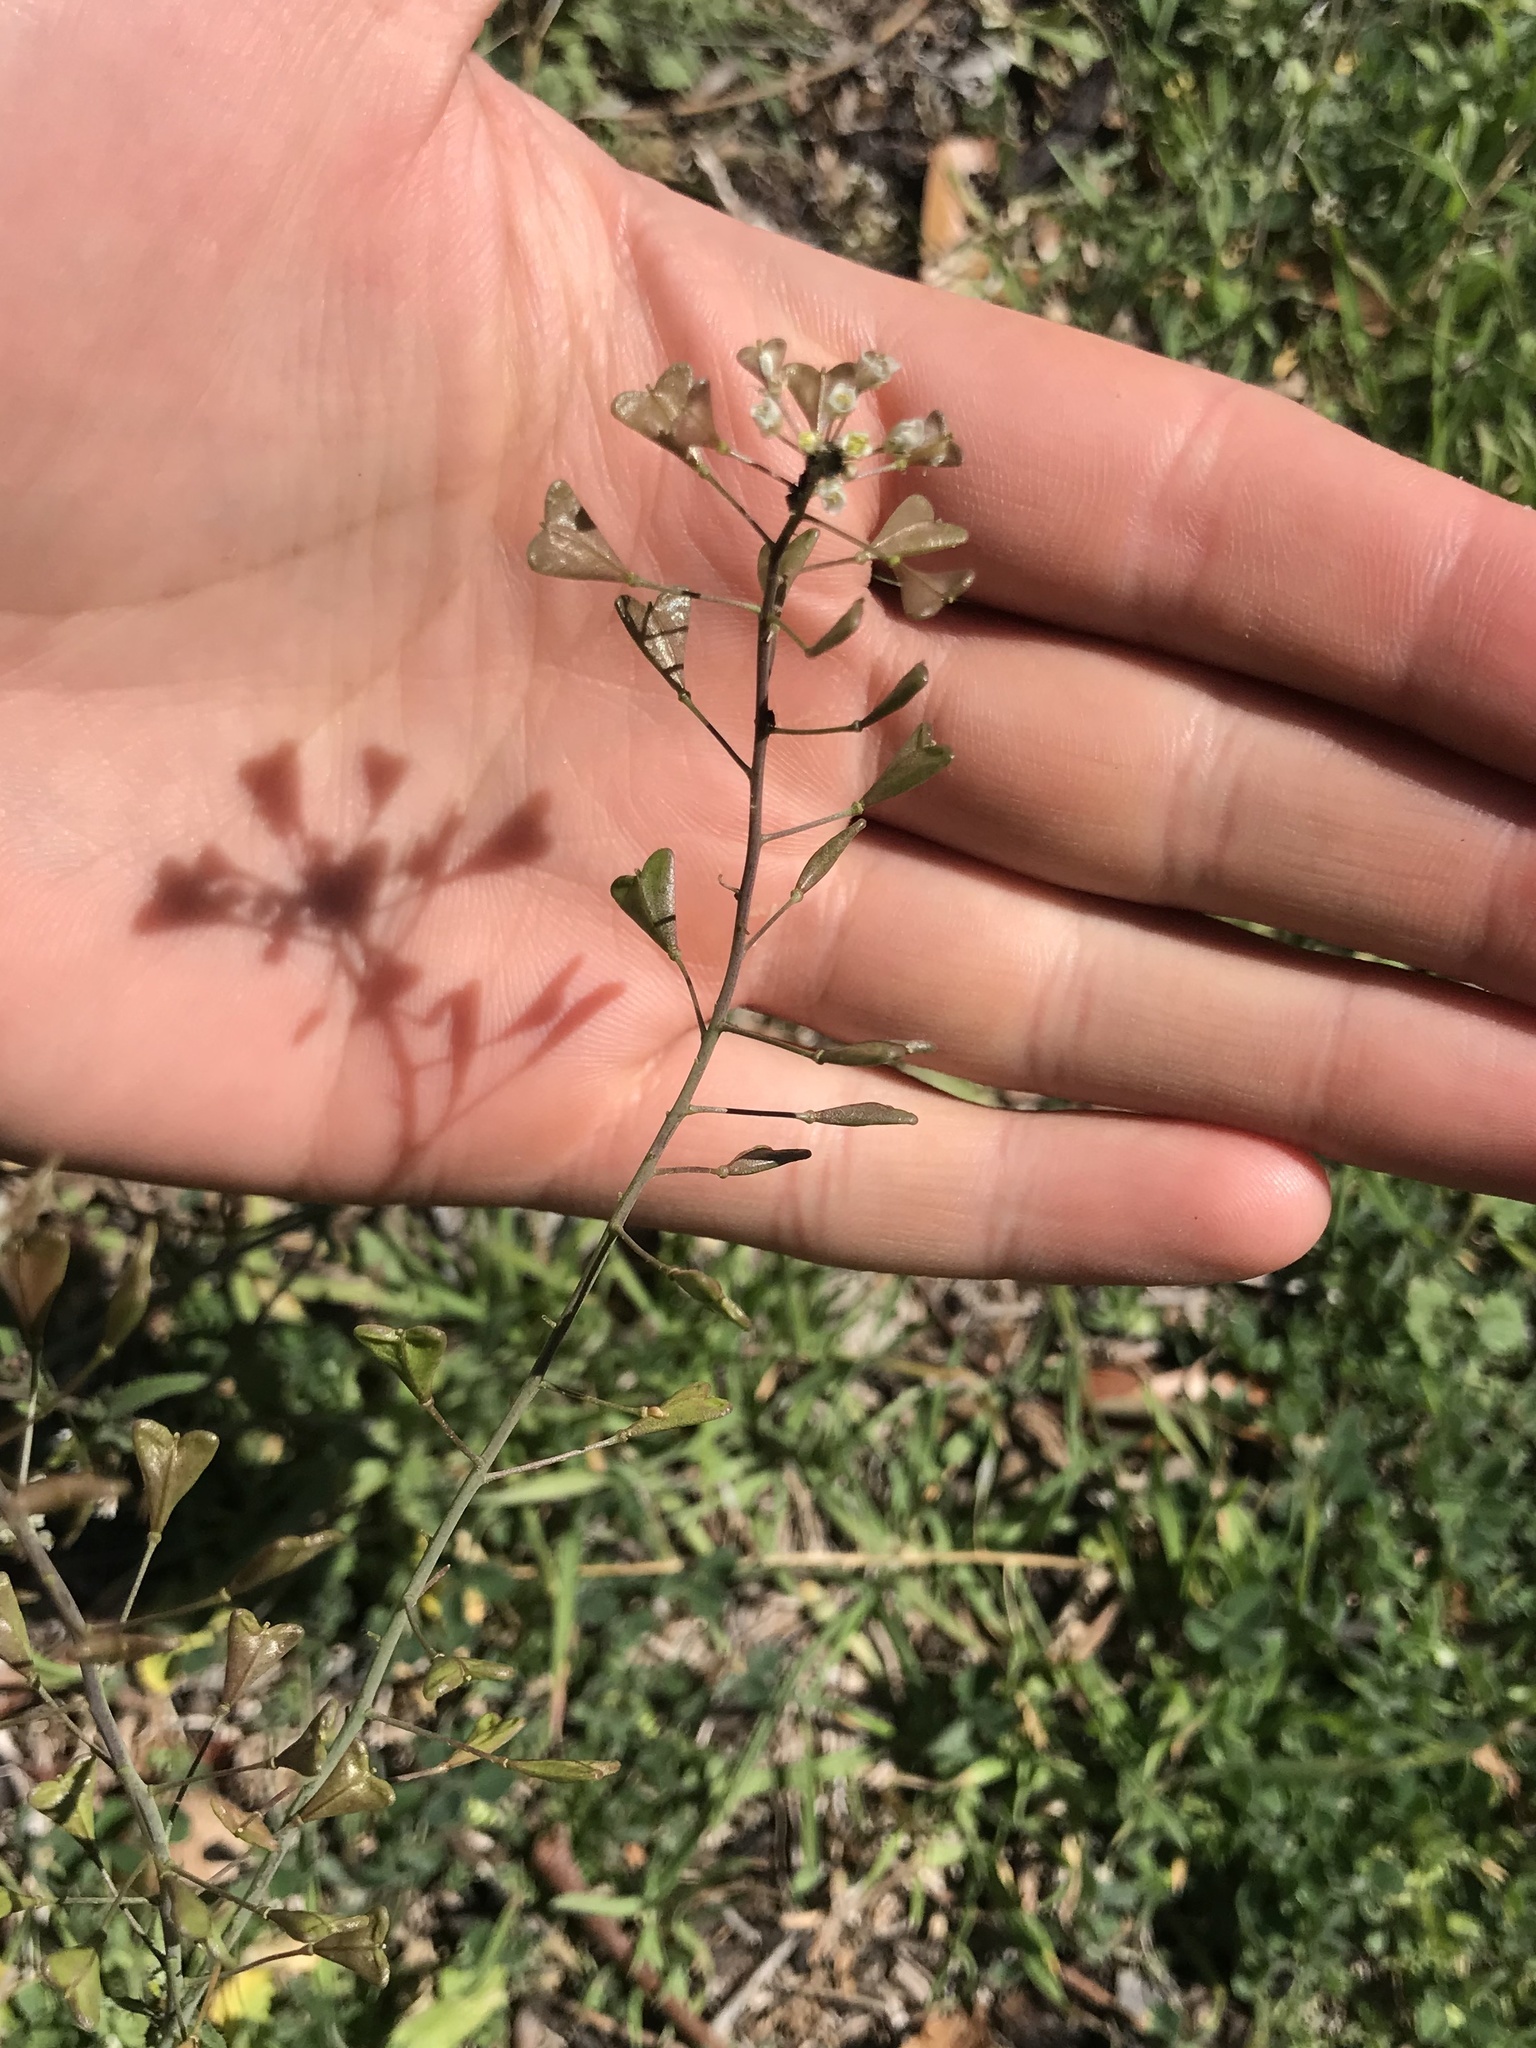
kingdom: Plantae
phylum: Tracheophyta
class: Magnoliopsida
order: Brassicales
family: Brassicaceae
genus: Capsella
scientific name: Capsella bursa-pastoris
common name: Shepherd's purse
